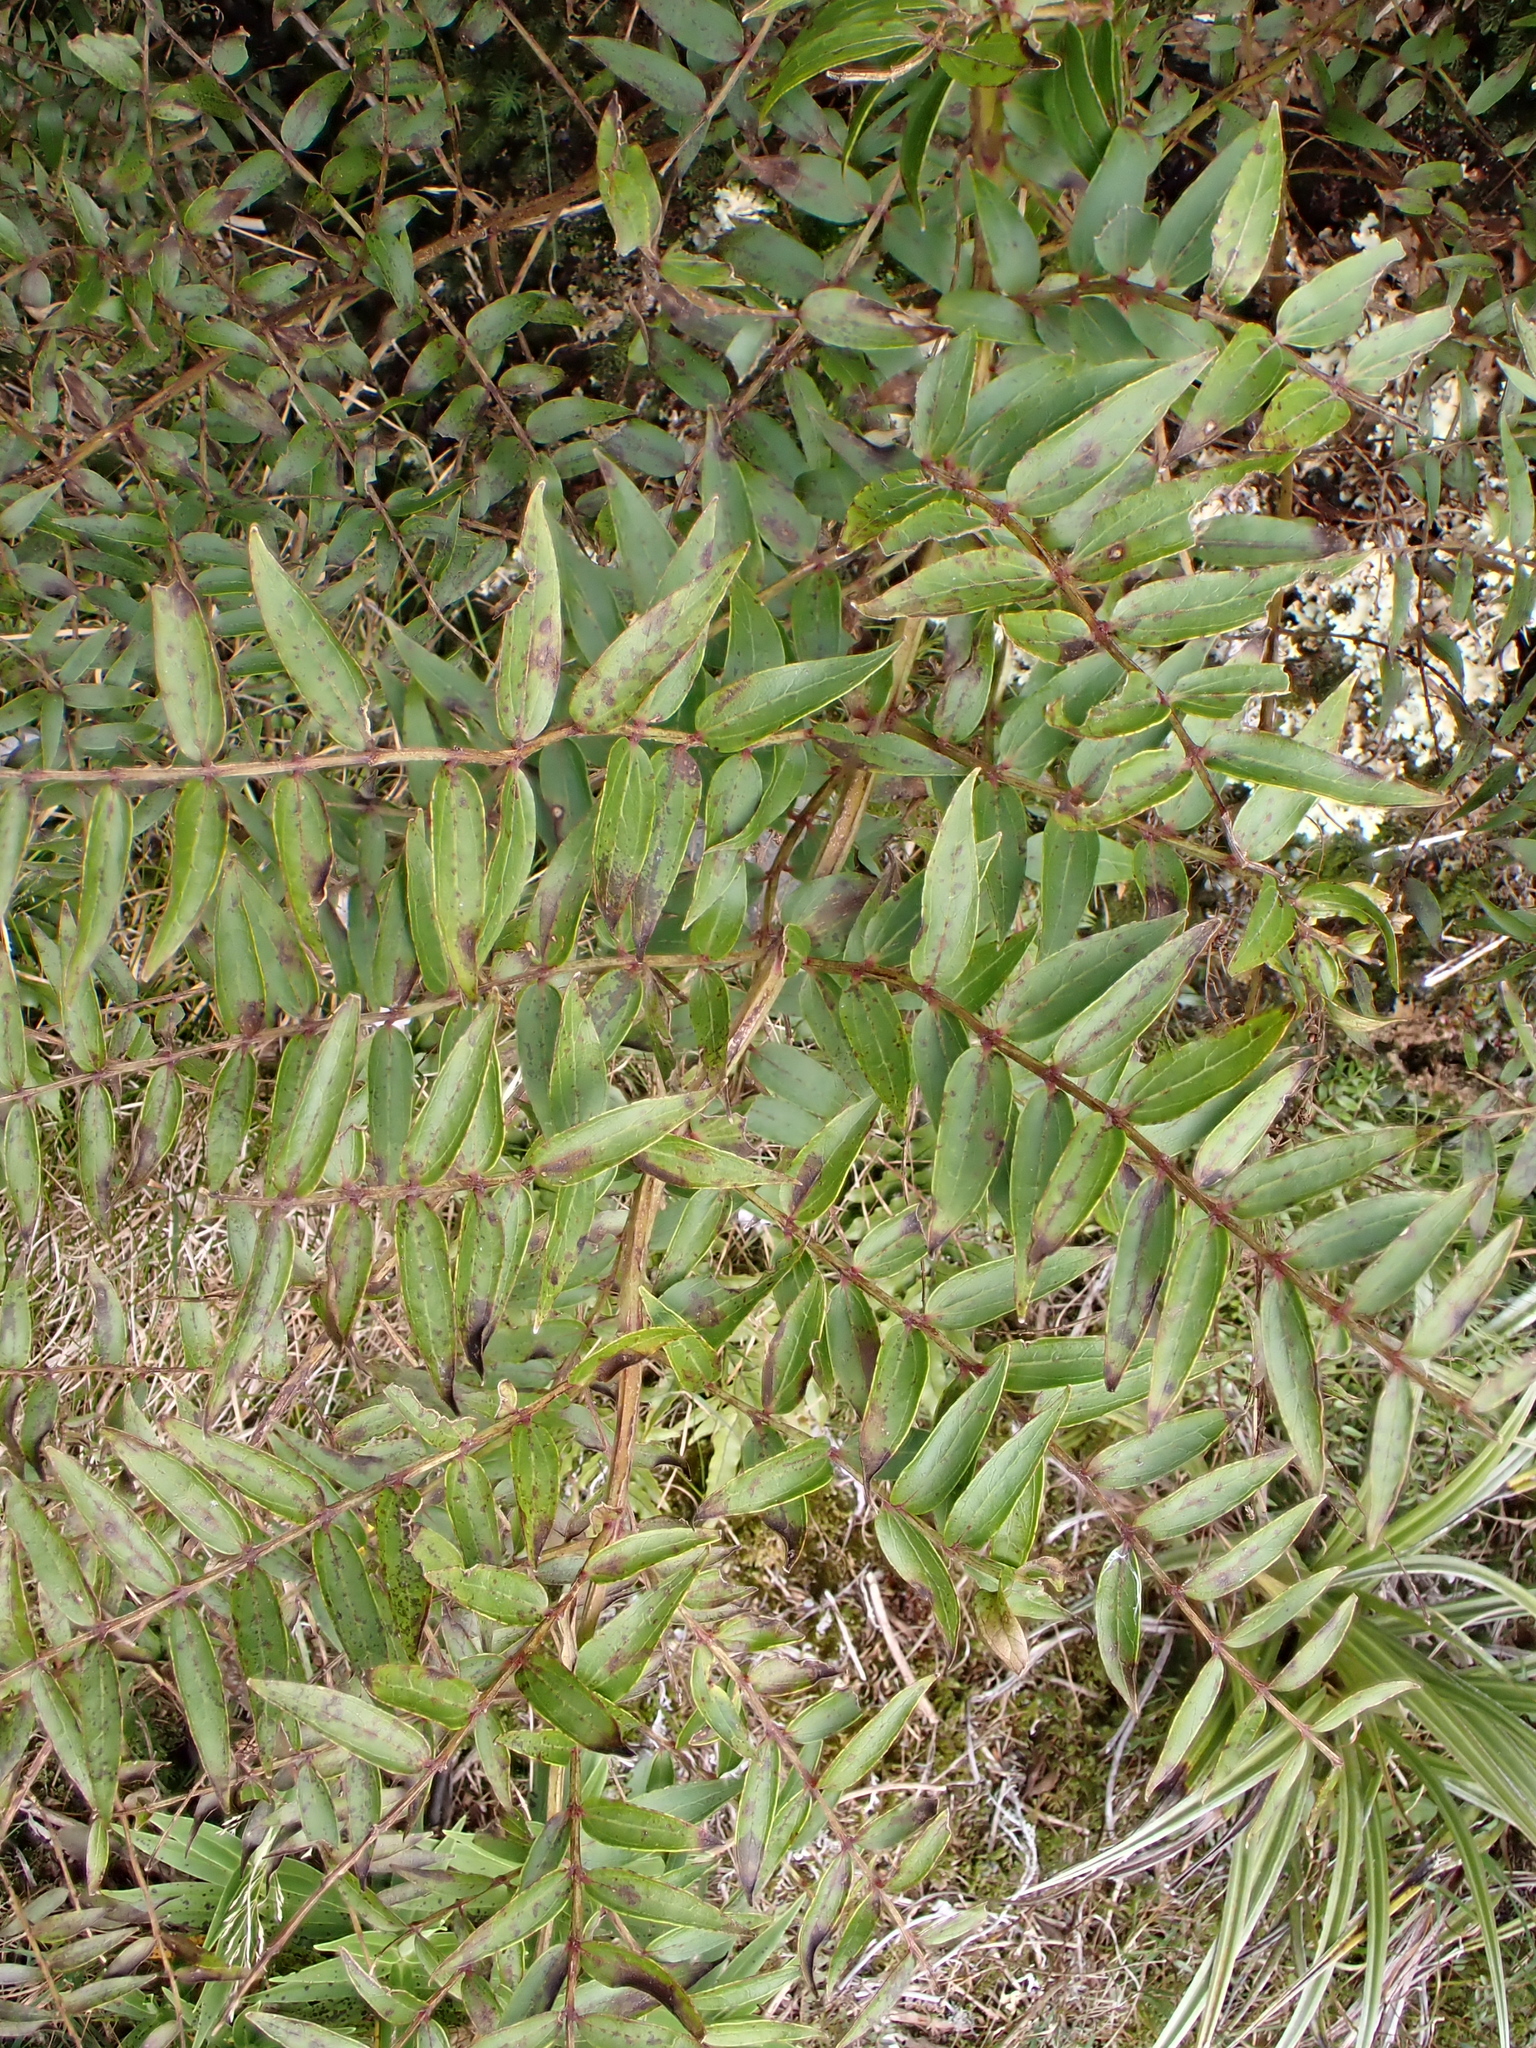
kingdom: Plantae
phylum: Tracheophyta
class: Magnoliopsida
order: Cucurbitales
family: Coriariaceae
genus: Coriaria
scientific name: Coriaria pteridoides
